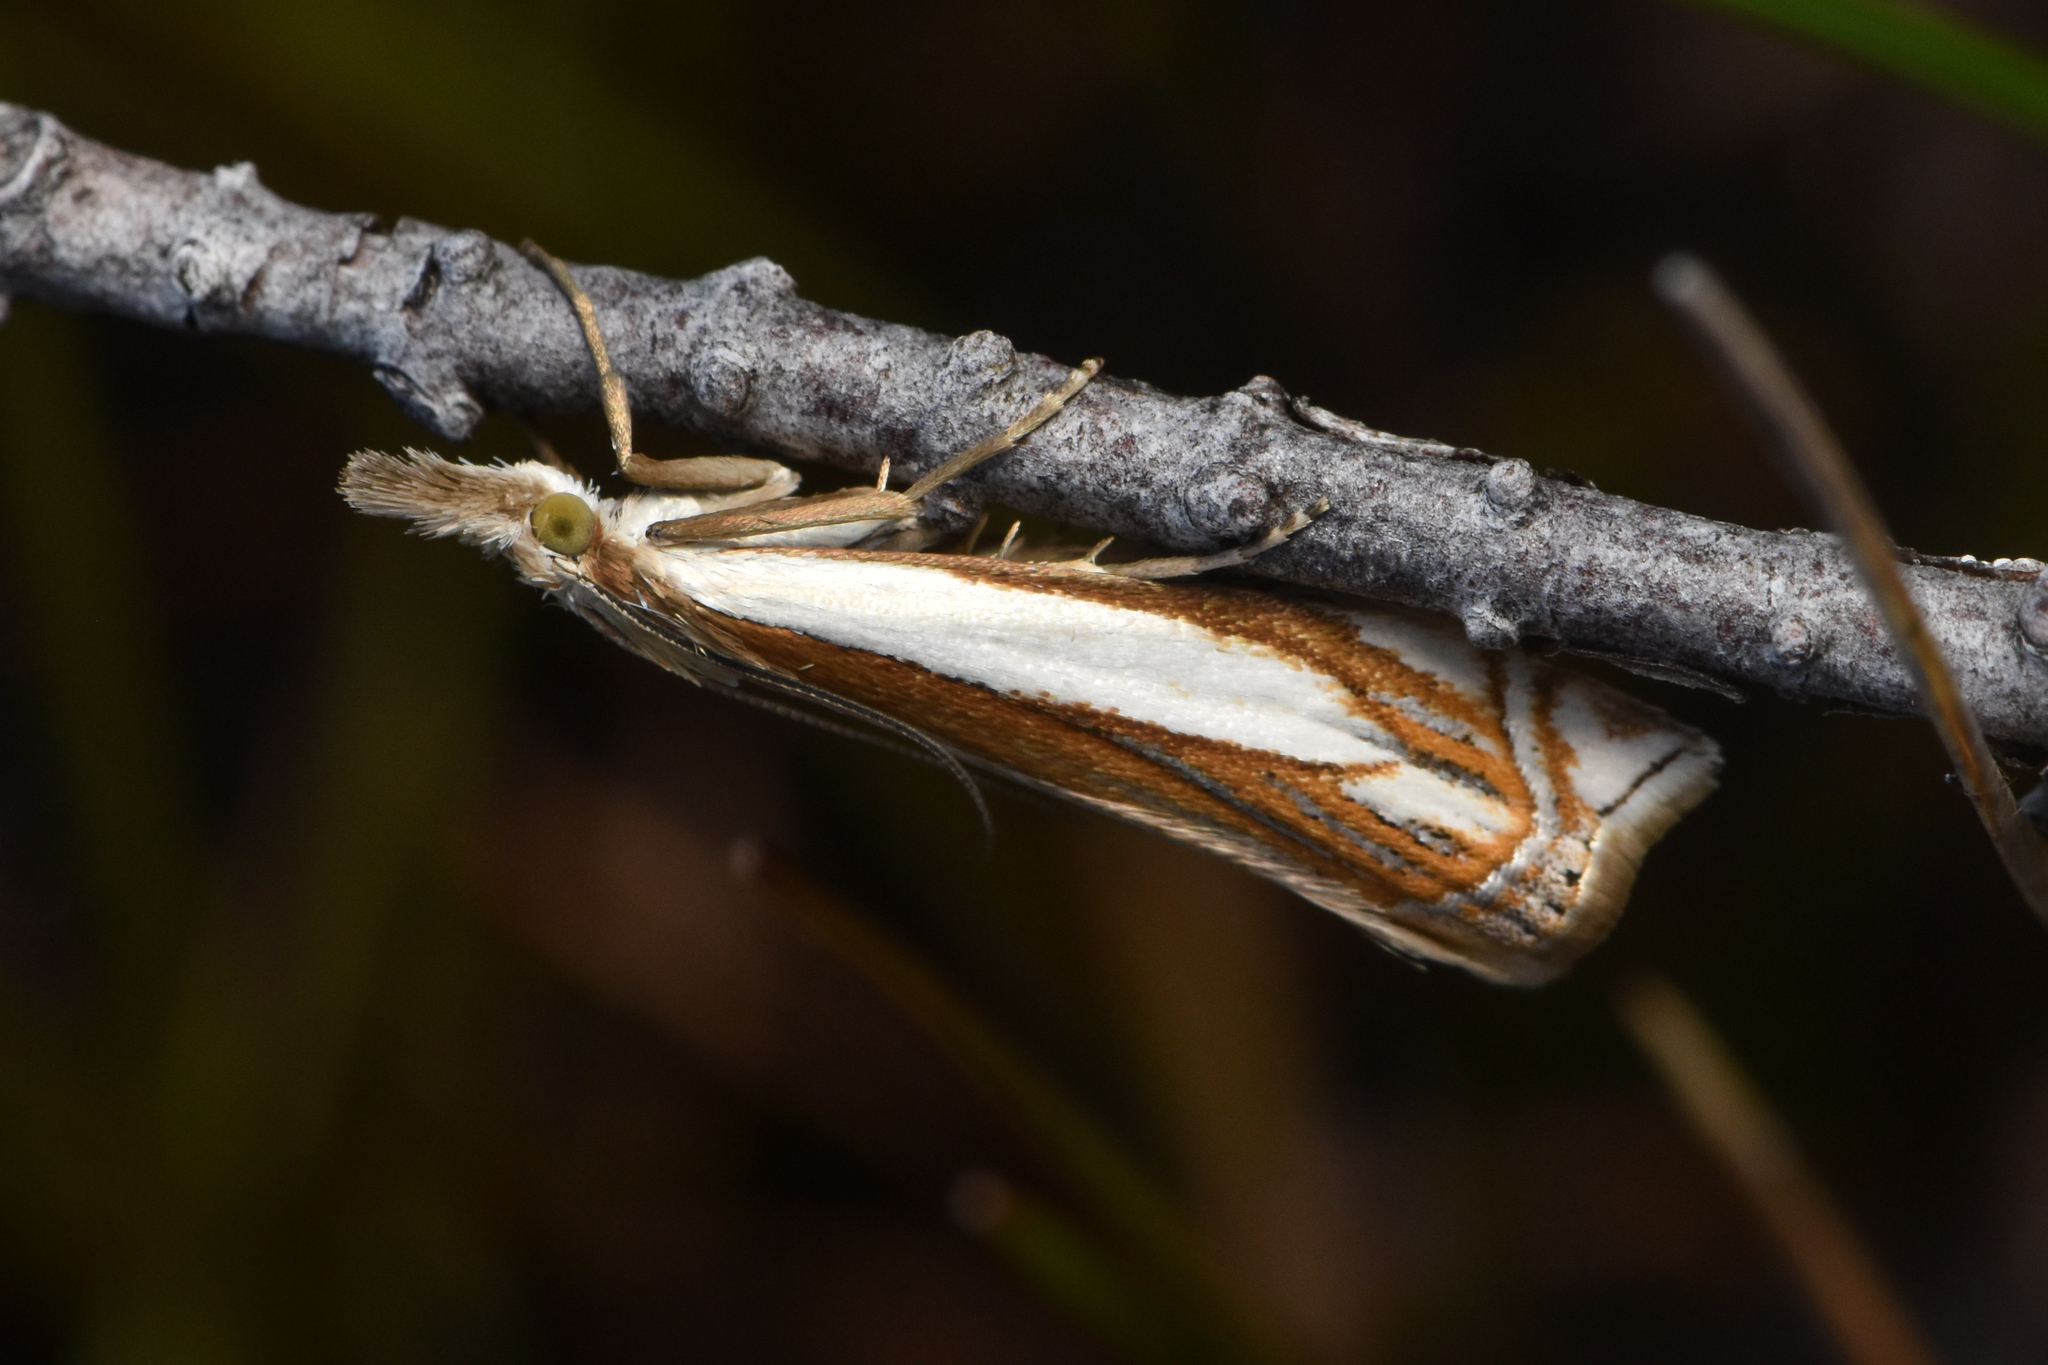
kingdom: Animalia
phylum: Arthropoda
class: Insecta
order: Lepidoptera
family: Crambidae
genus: Crambus
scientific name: Crambus pascuella
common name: Inlaid grass-veneer
